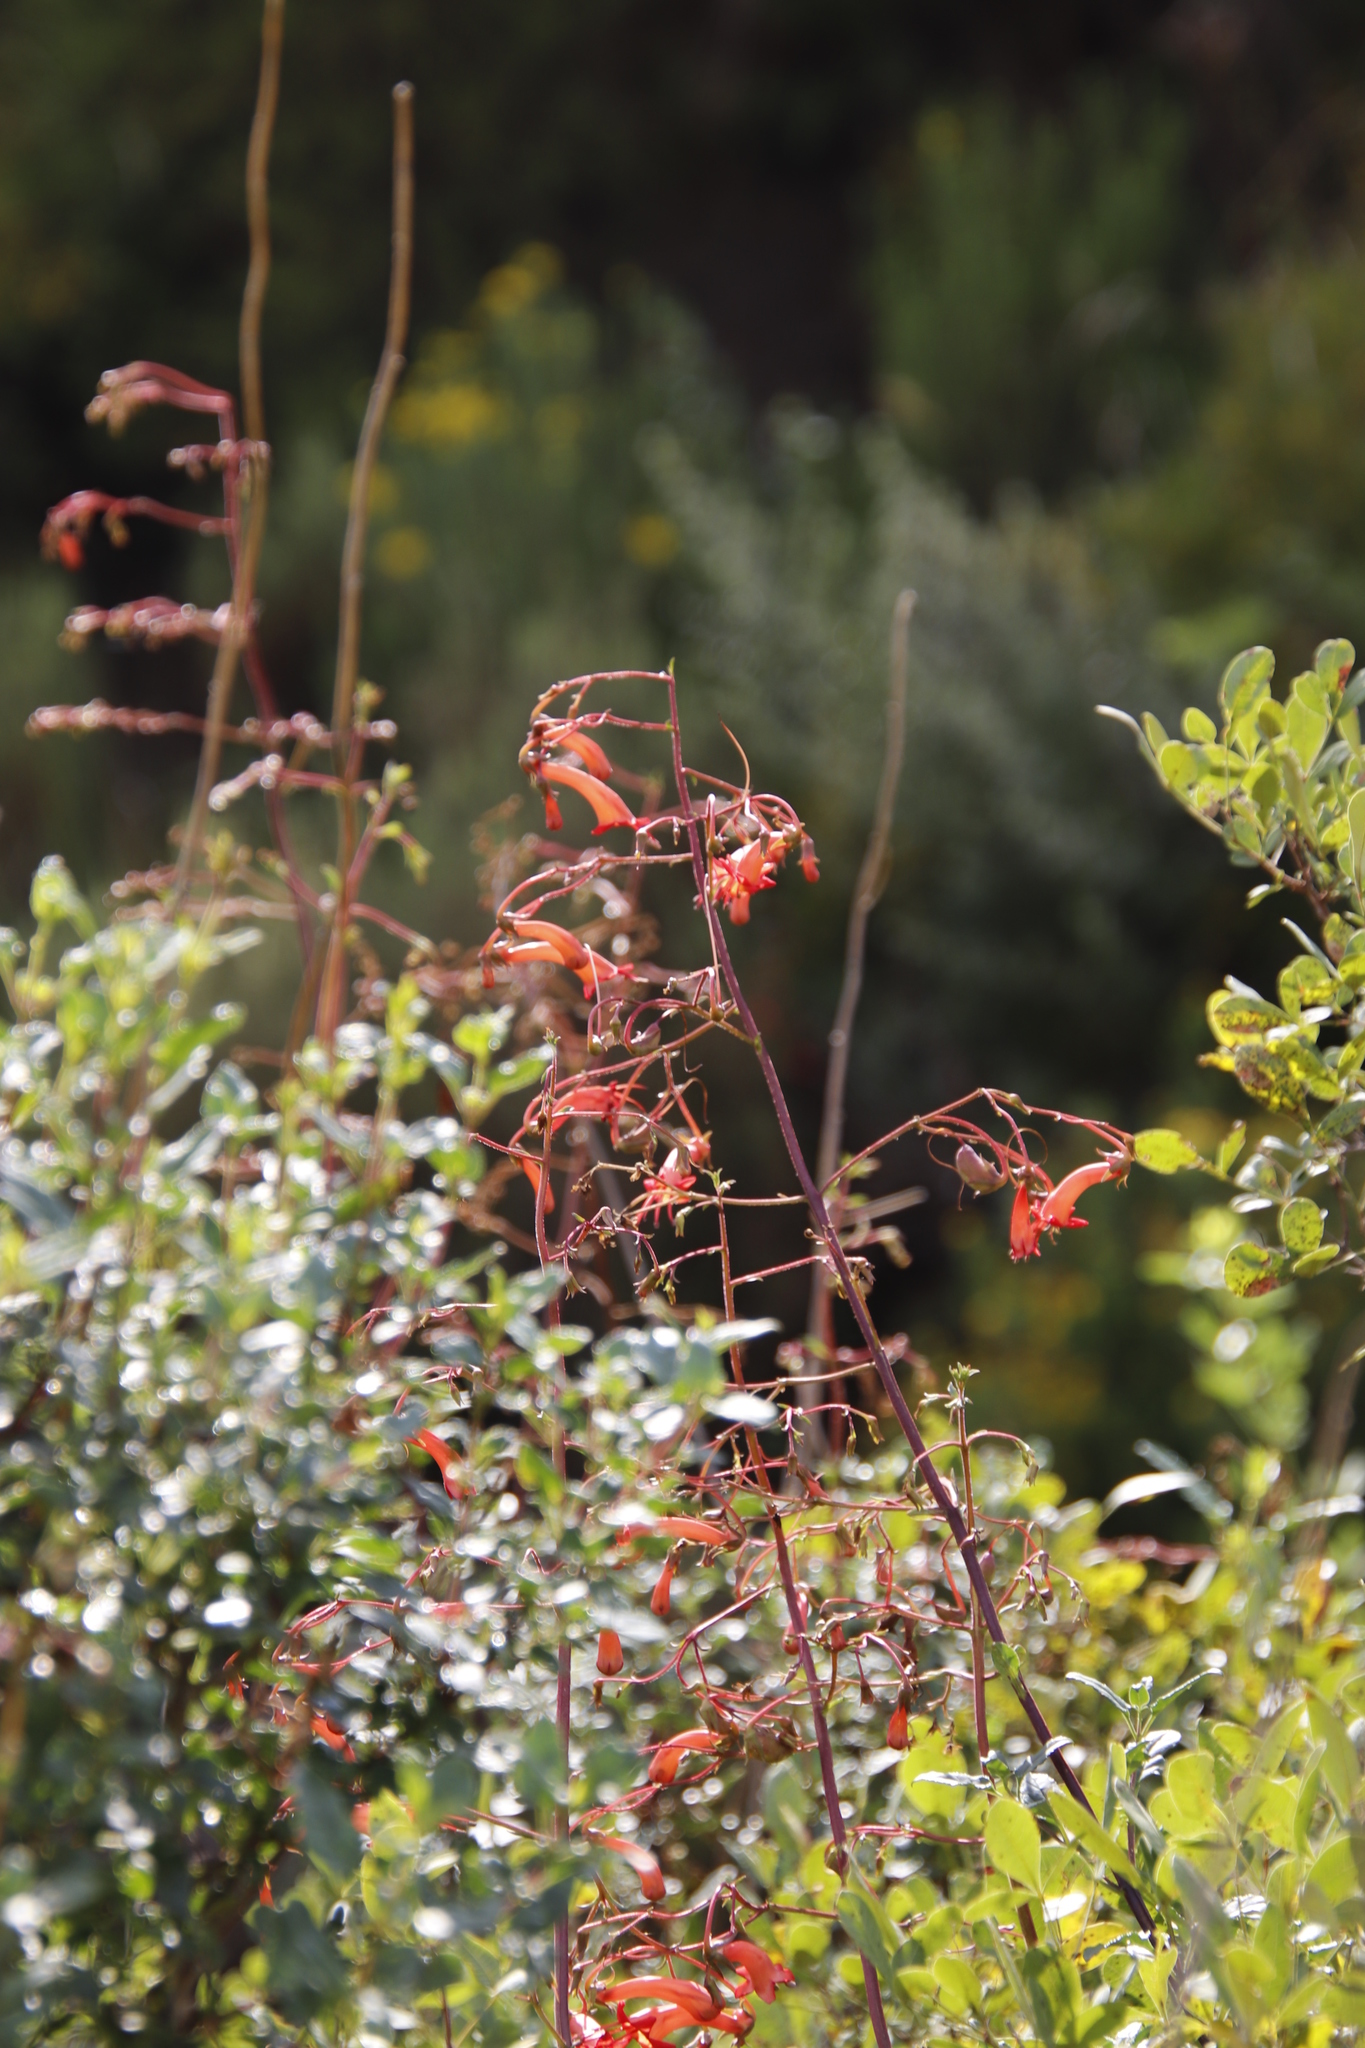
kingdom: Plantae
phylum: Tracheophyta
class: Magnoliopsida
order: Lamiales
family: Scrophulariaceae
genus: Phygelius
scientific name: Phygelius capensis
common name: Cape figwort
